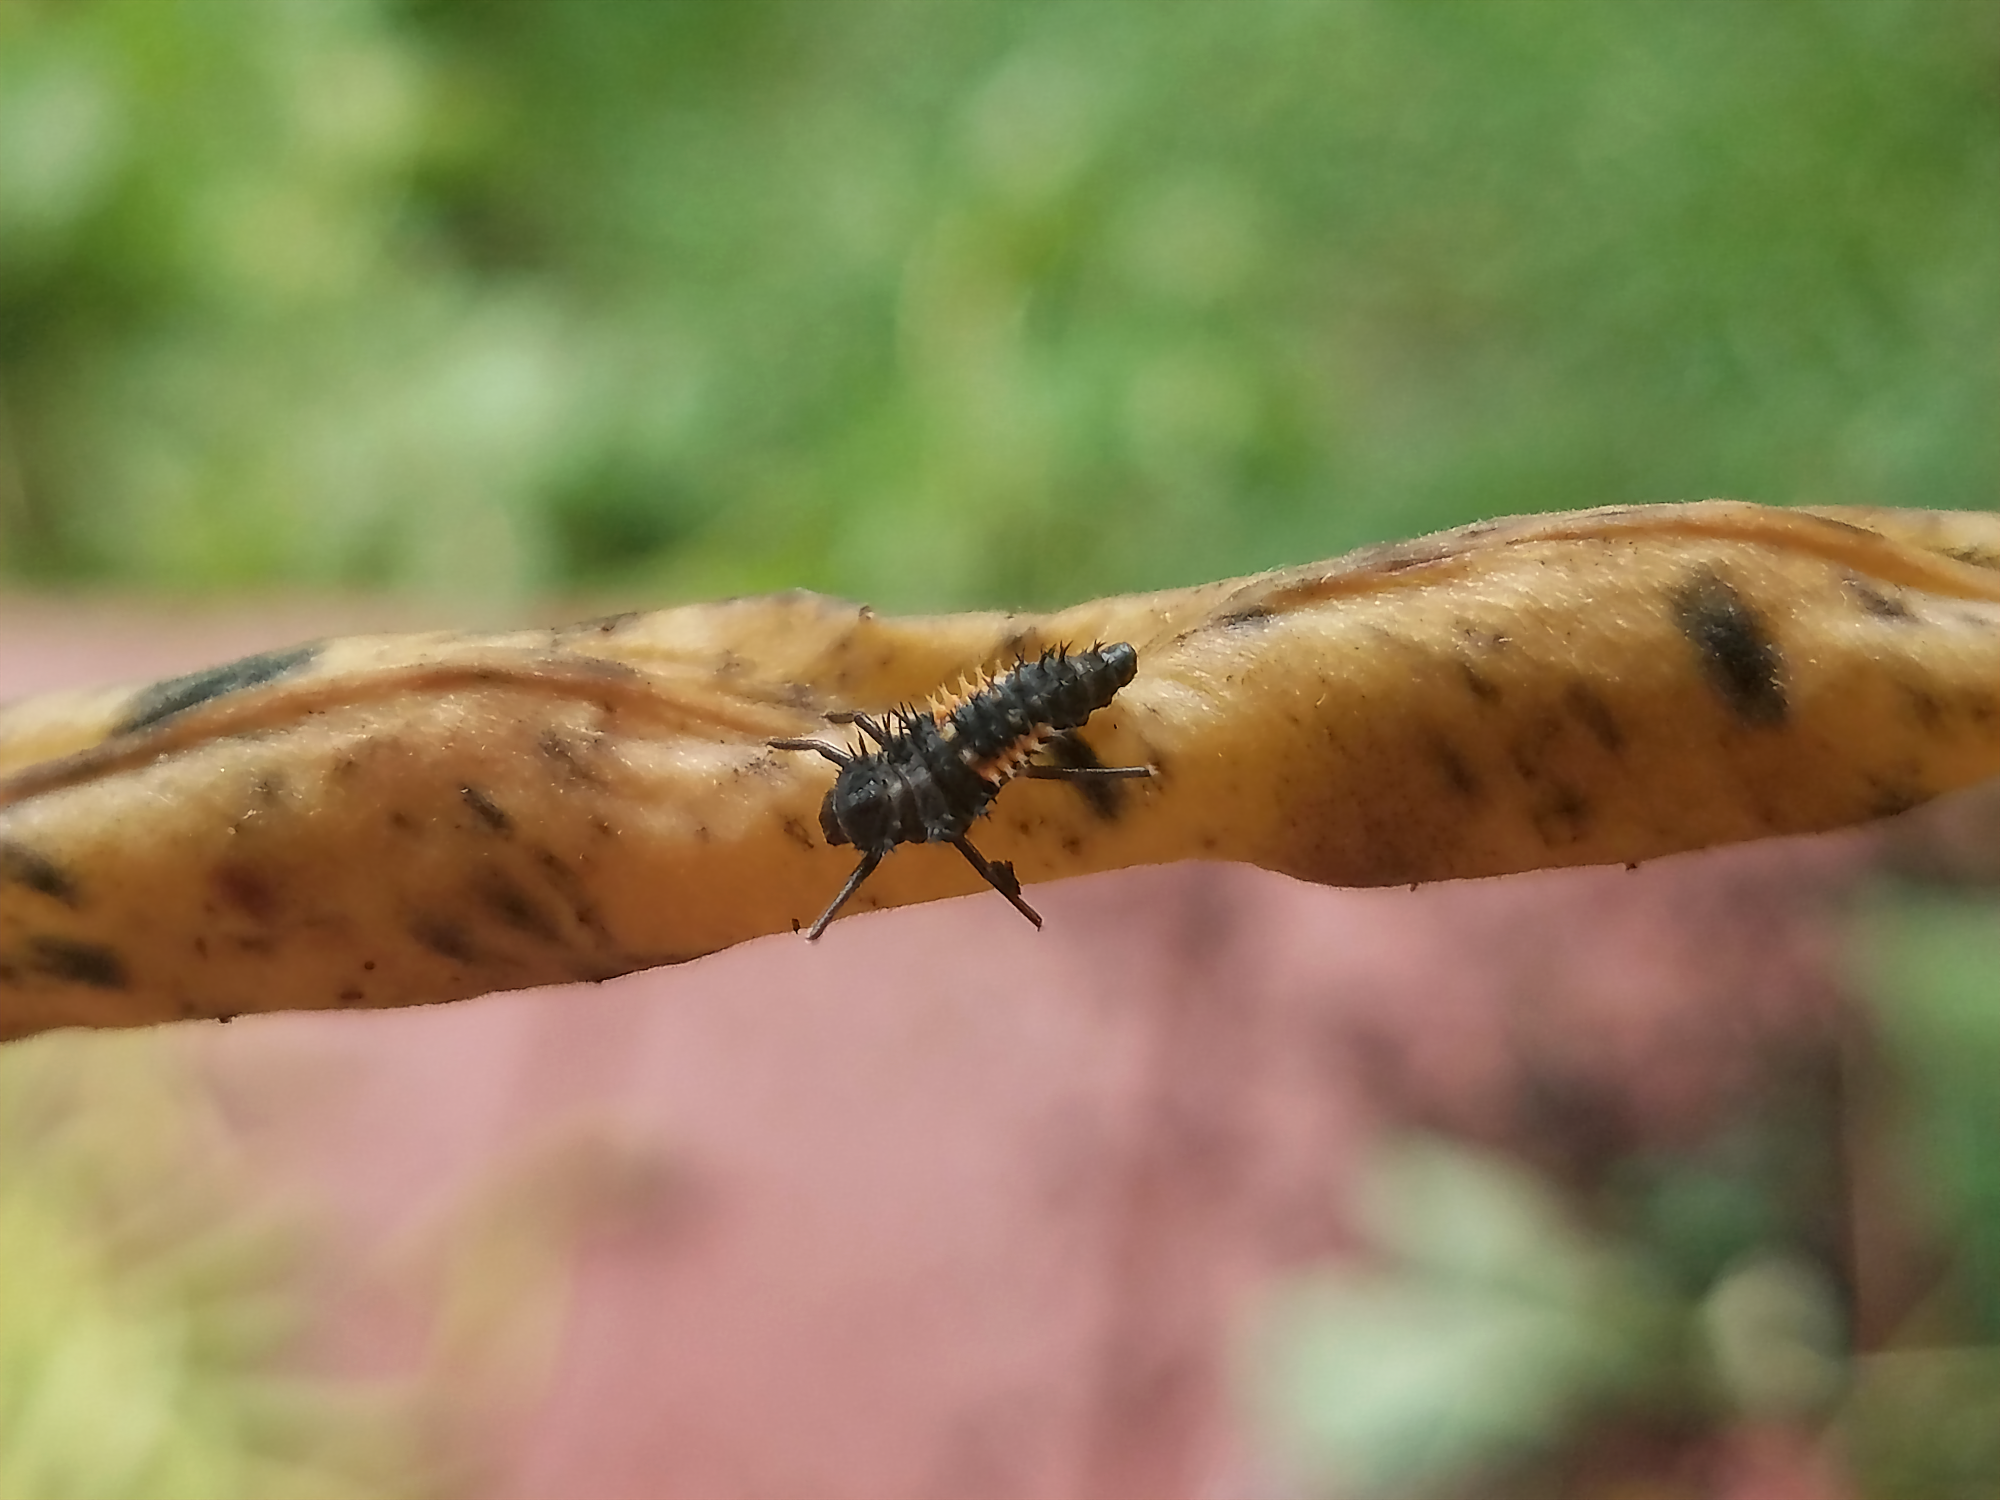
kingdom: Animalia
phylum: Arthropoda
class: Insecta
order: Coleoptera
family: Coccinellidae
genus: Harmonia
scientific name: Harmonia axyridis
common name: Harlequin ladybird
